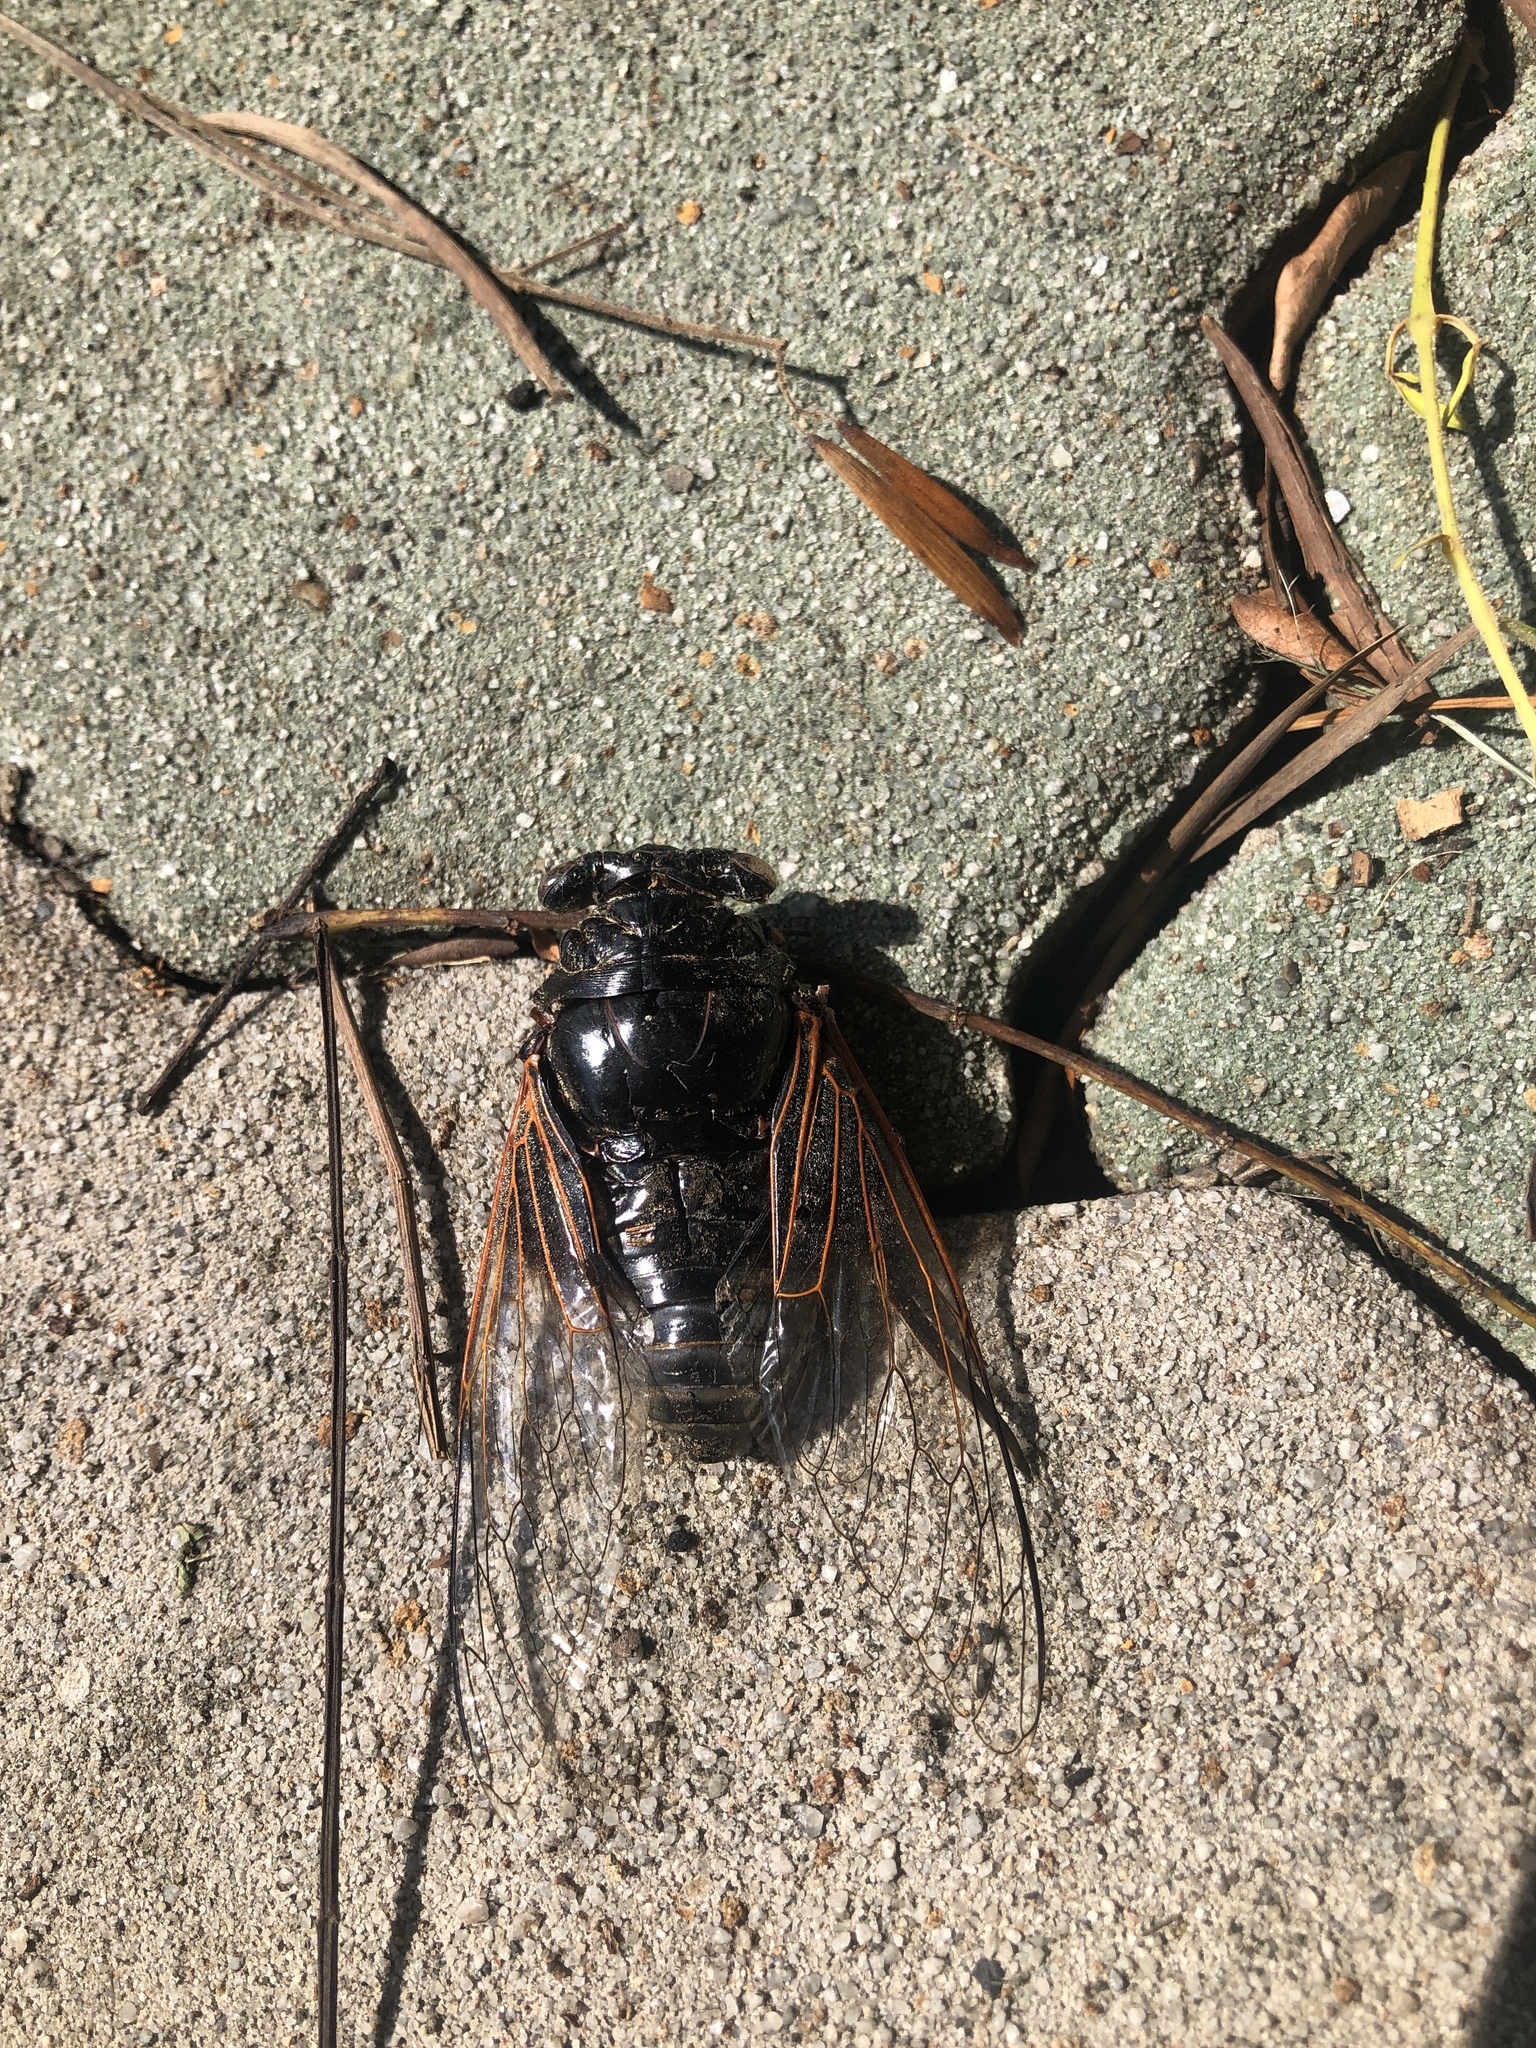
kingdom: Animalia
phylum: Arthropoda
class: Insecta
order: Hemiptera
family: Cicadidae
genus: Cryptotympana
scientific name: Cryptotympana atrata
